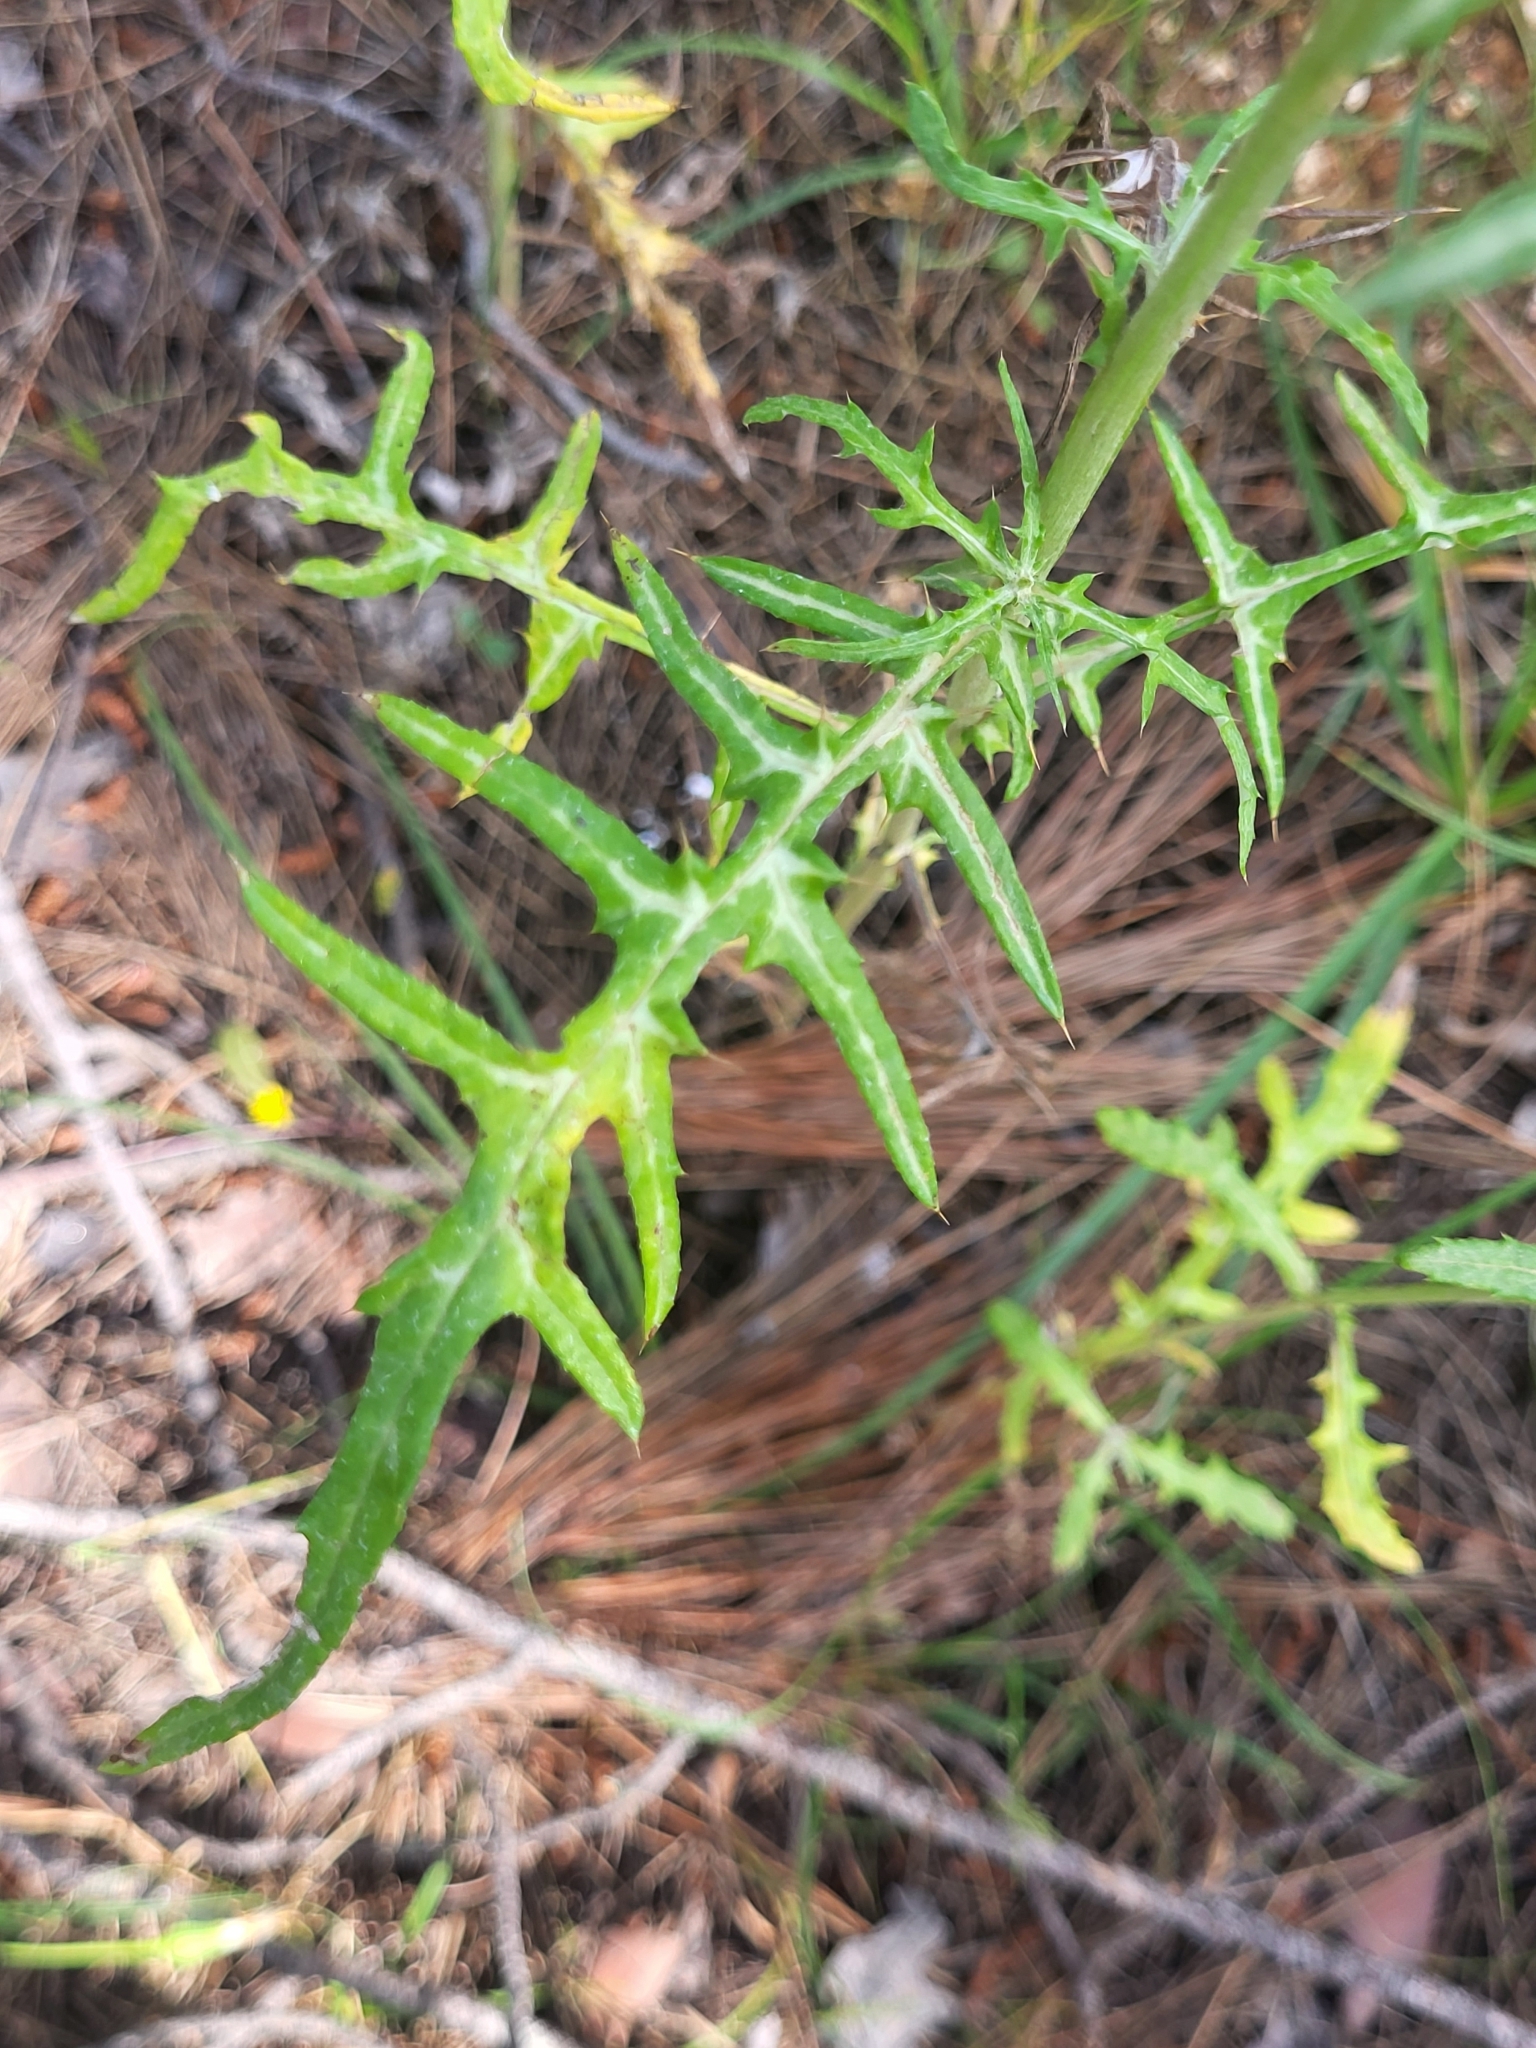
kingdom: Plantae
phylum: Tracheophyta
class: Magnoliopsida
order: Asterales
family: Asteraceae
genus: Galactites
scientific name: Galactites tomentosa
